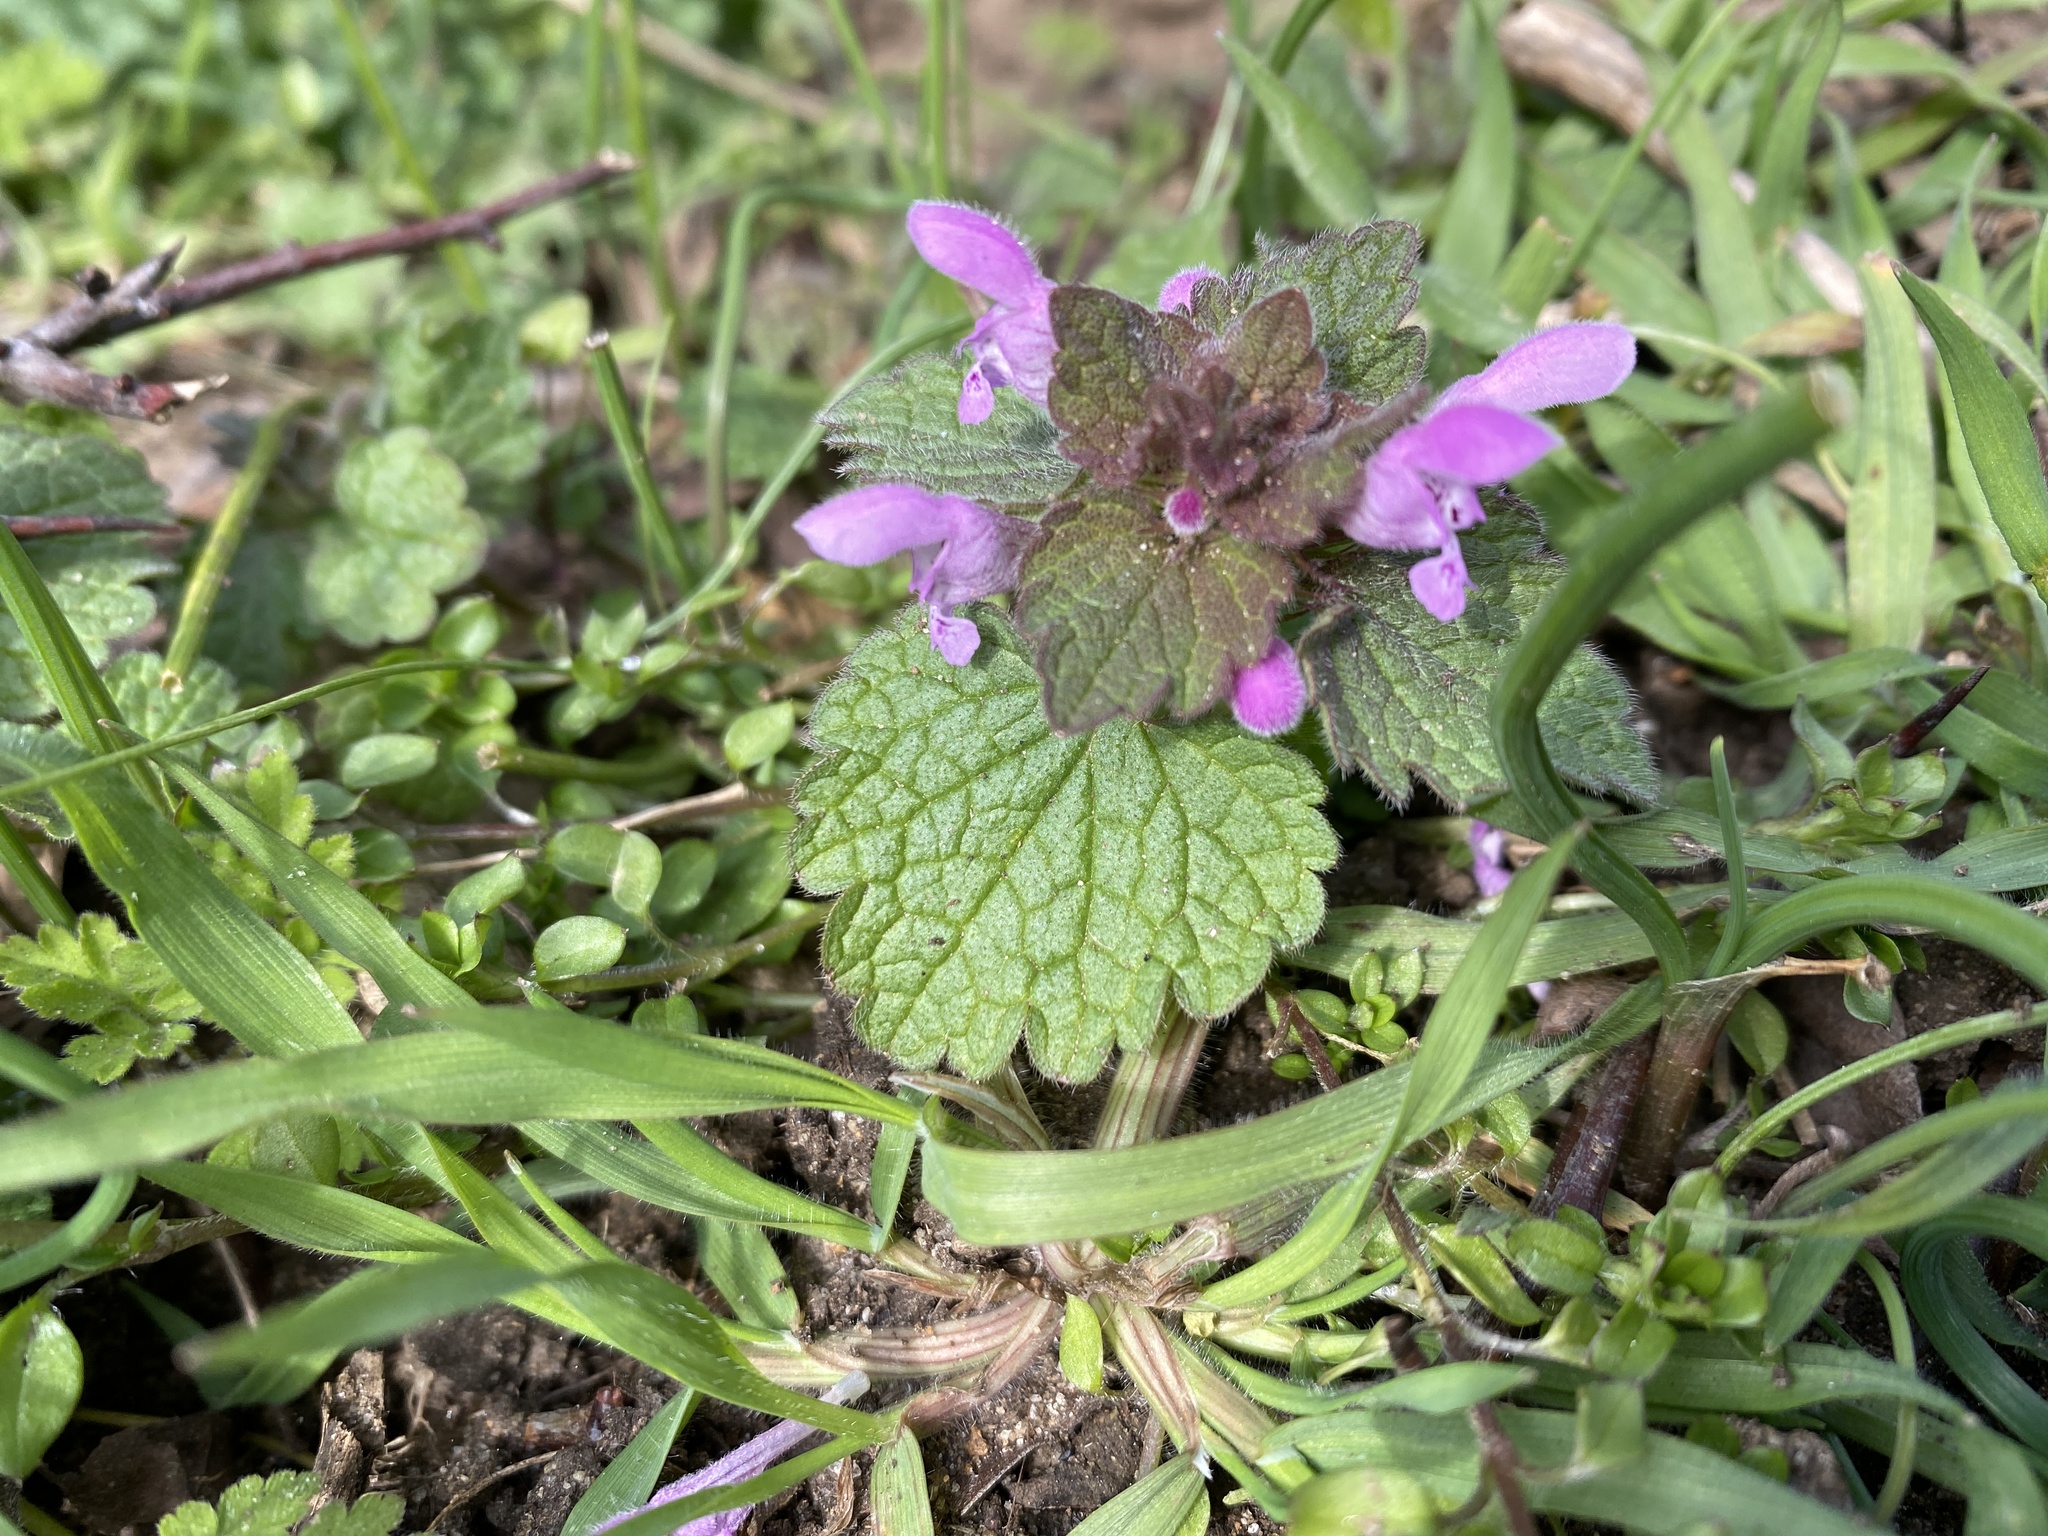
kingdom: Plantae
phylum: Tracheophyta
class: Magnoliopsida
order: Lamiales
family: Lamiaceae
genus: Lamium
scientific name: Lamium purpureum
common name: Red dead-nettle
